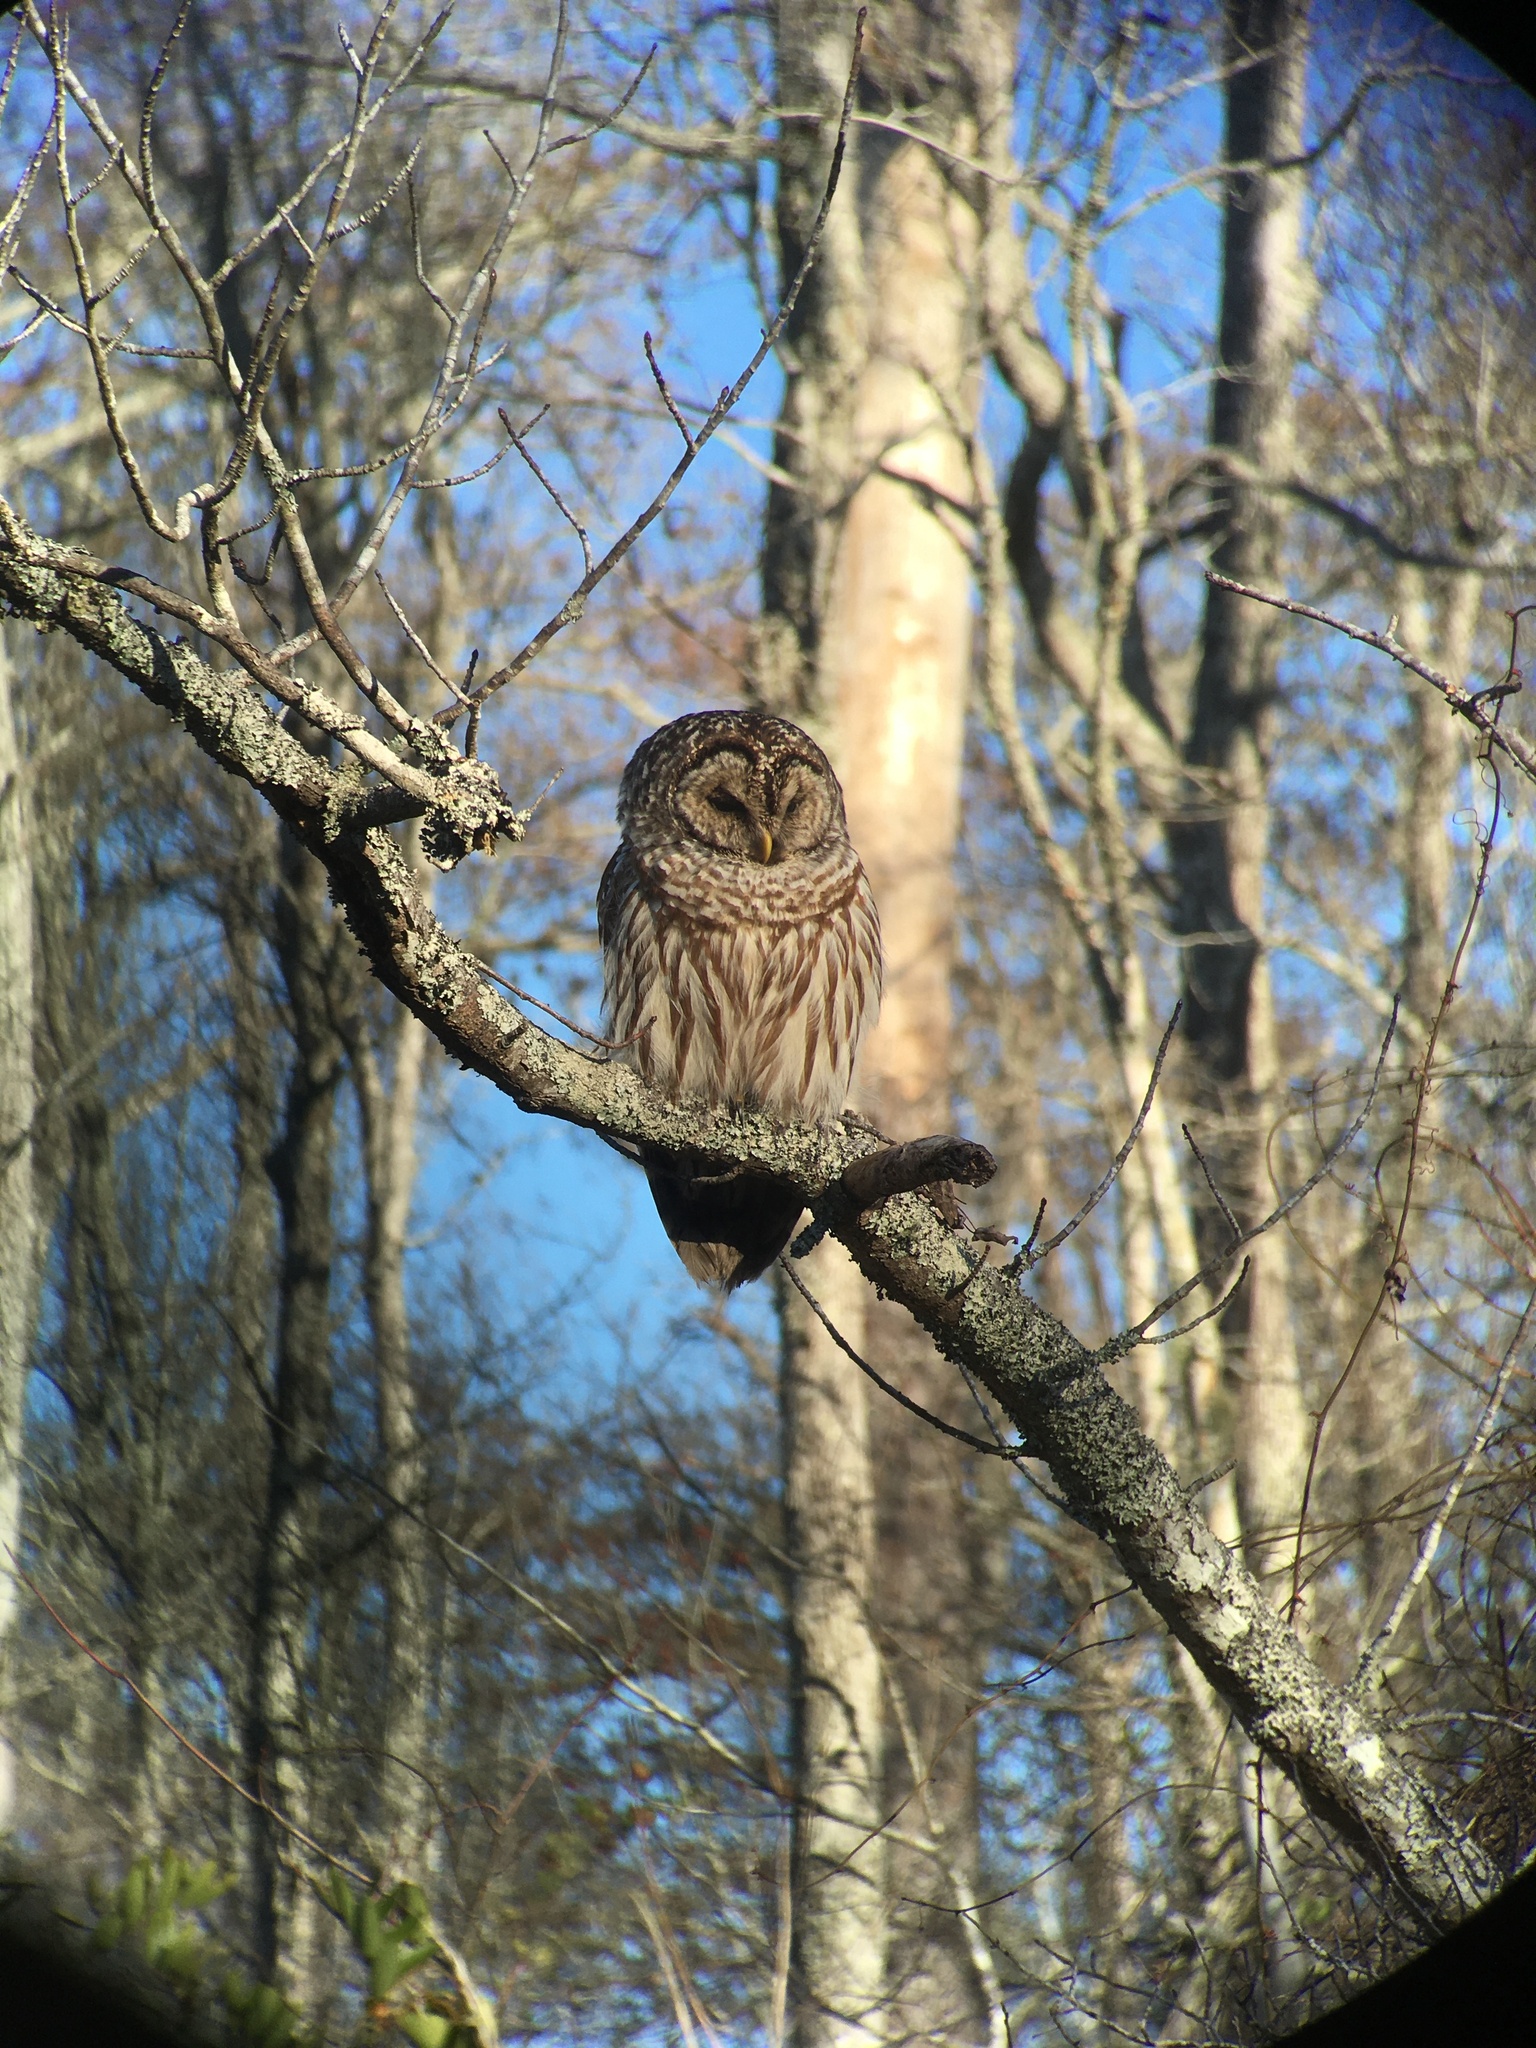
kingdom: Animalia
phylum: Chordata
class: Aves
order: Strigiformes
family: Strigidae
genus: Strix
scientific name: Strix varia
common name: Barred owl
